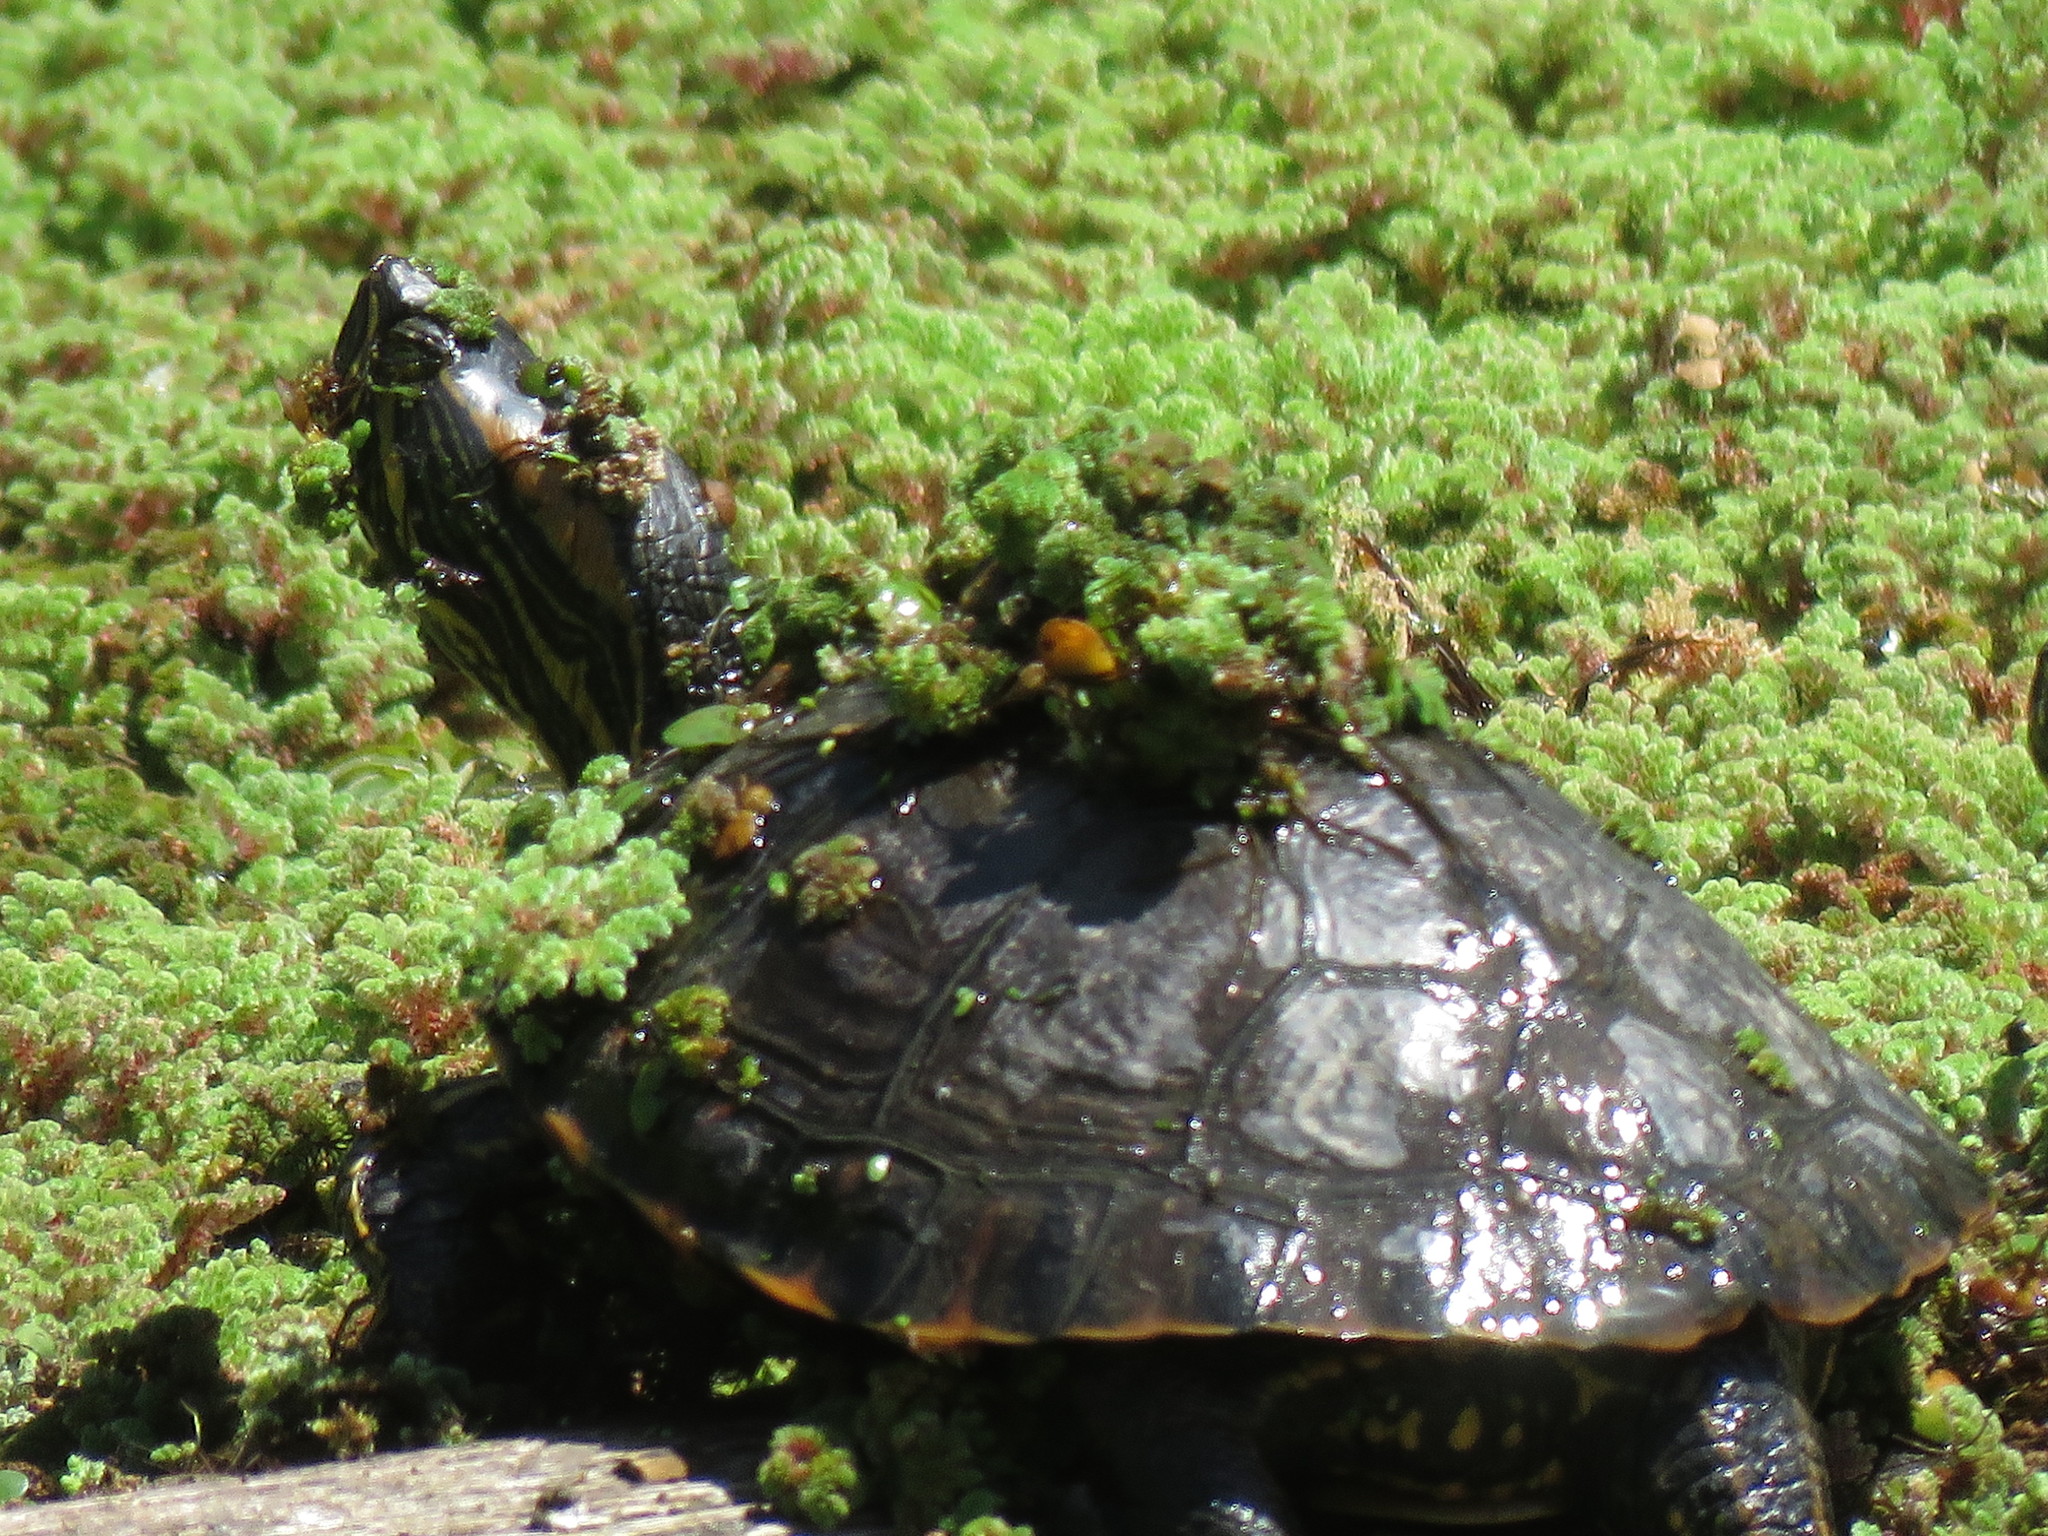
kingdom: Animalia
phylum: Chordata
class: Testudines
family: Emydidae
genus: Trachemys
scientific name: Trachemys dorbigni
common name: Black-bellied slider
